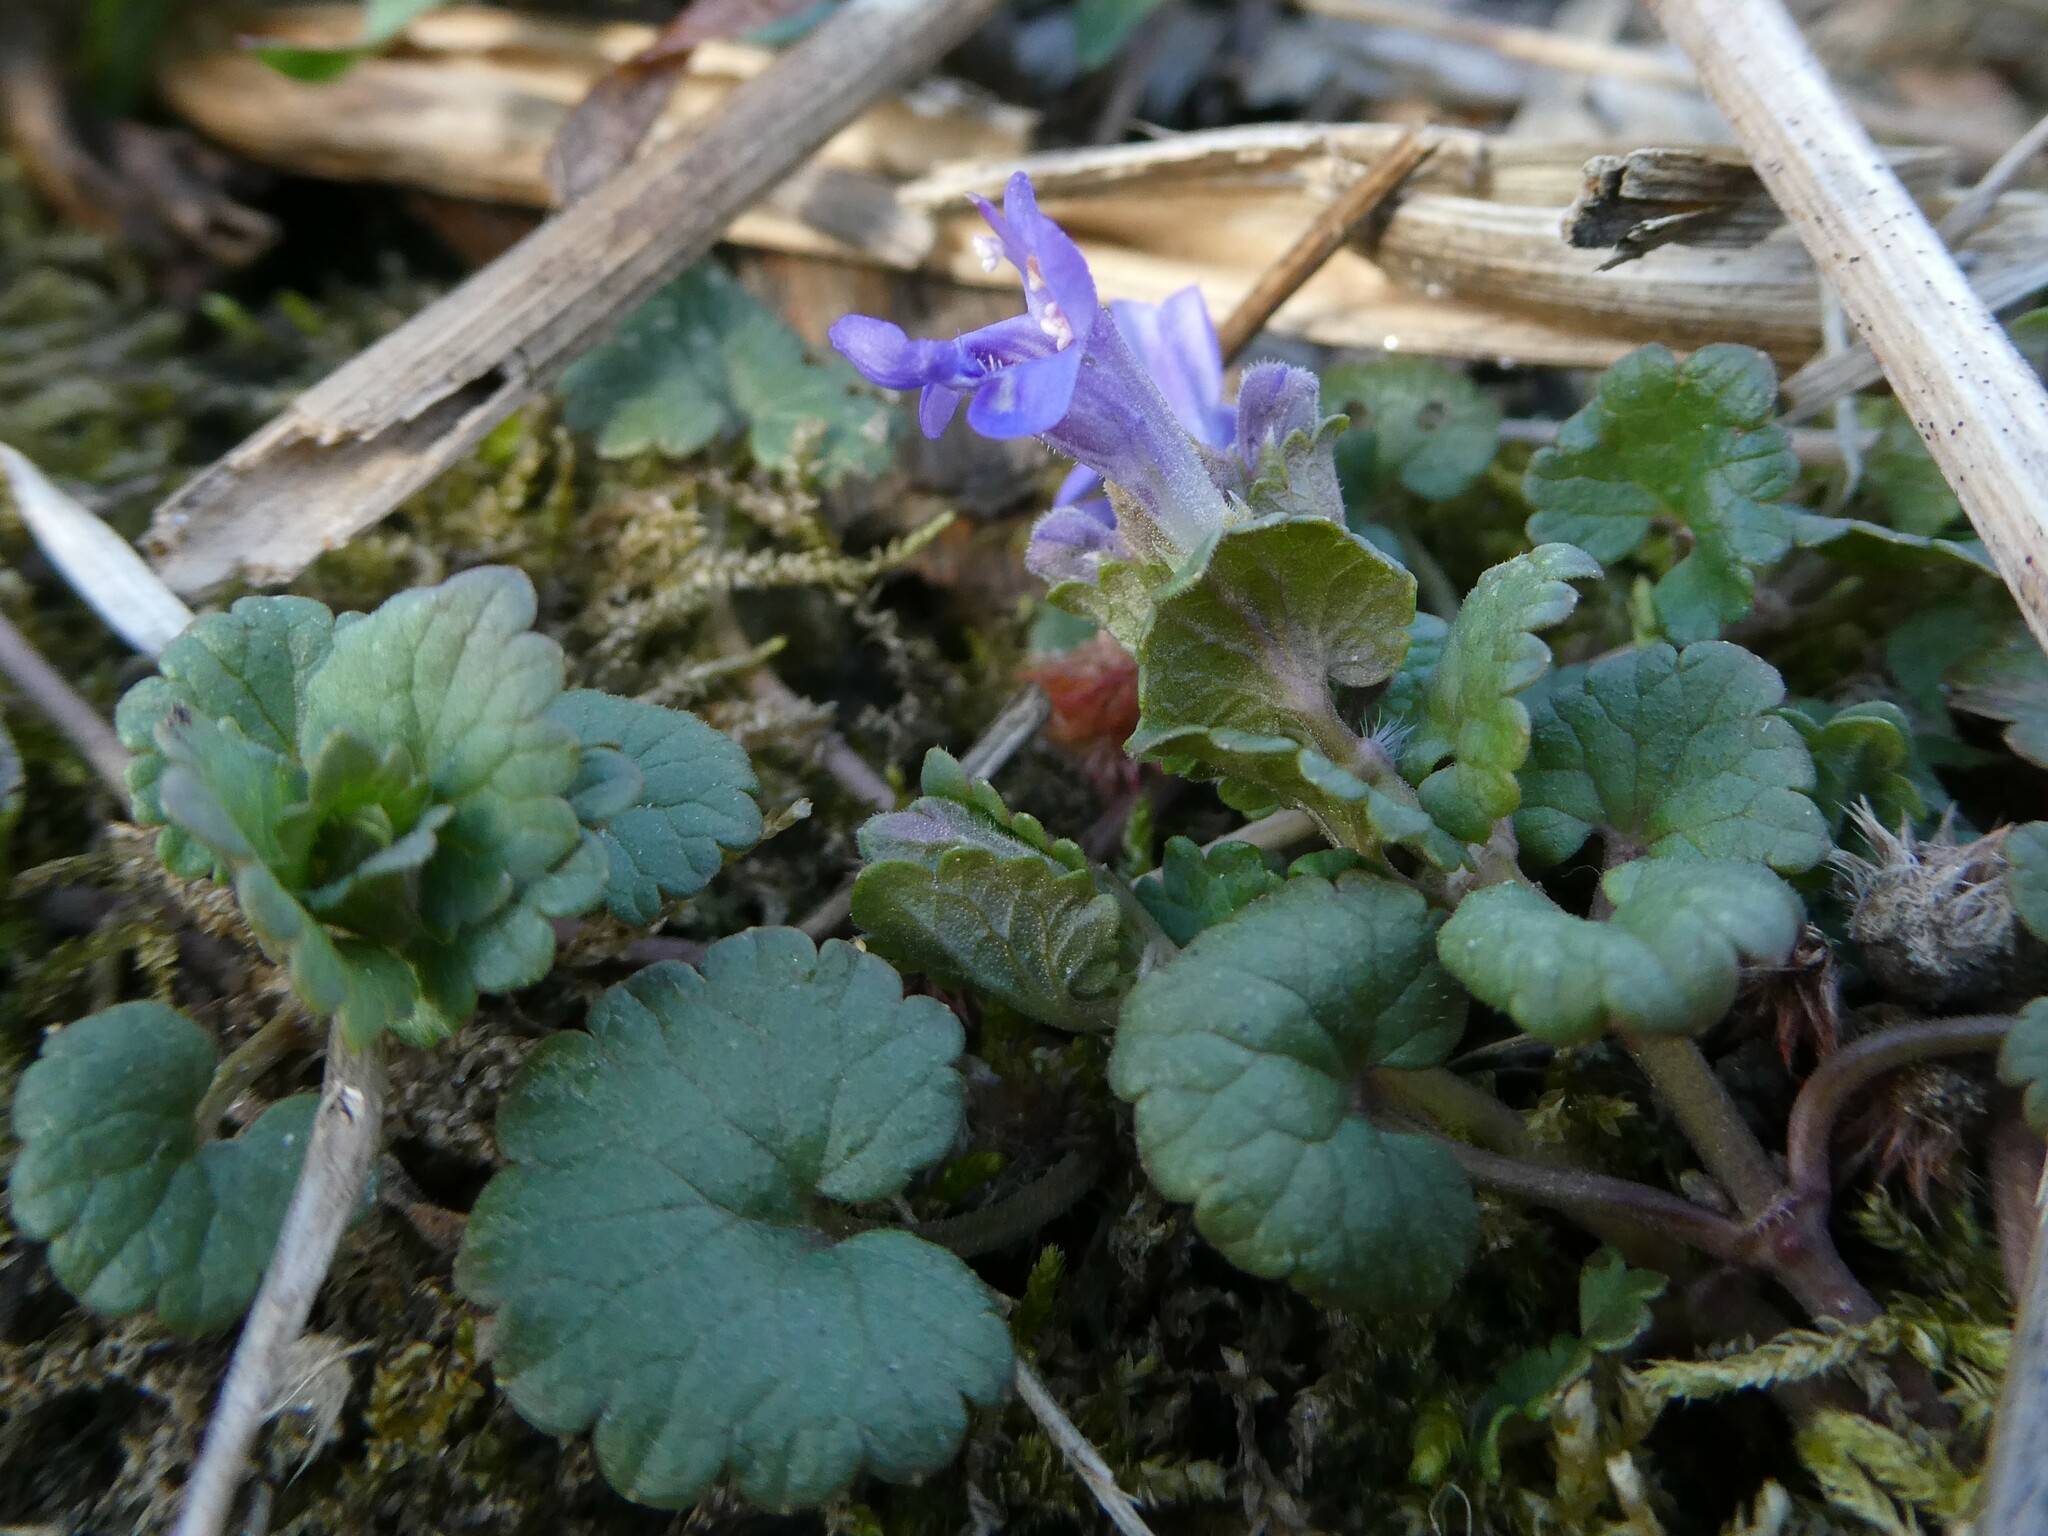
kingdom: Plantae
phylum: Tracheophyta
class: Magnoliopsida
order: Lamiales
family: Lamiaceae
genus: Glechoma
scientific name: Glechoma hederacea
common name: Ground ivy
